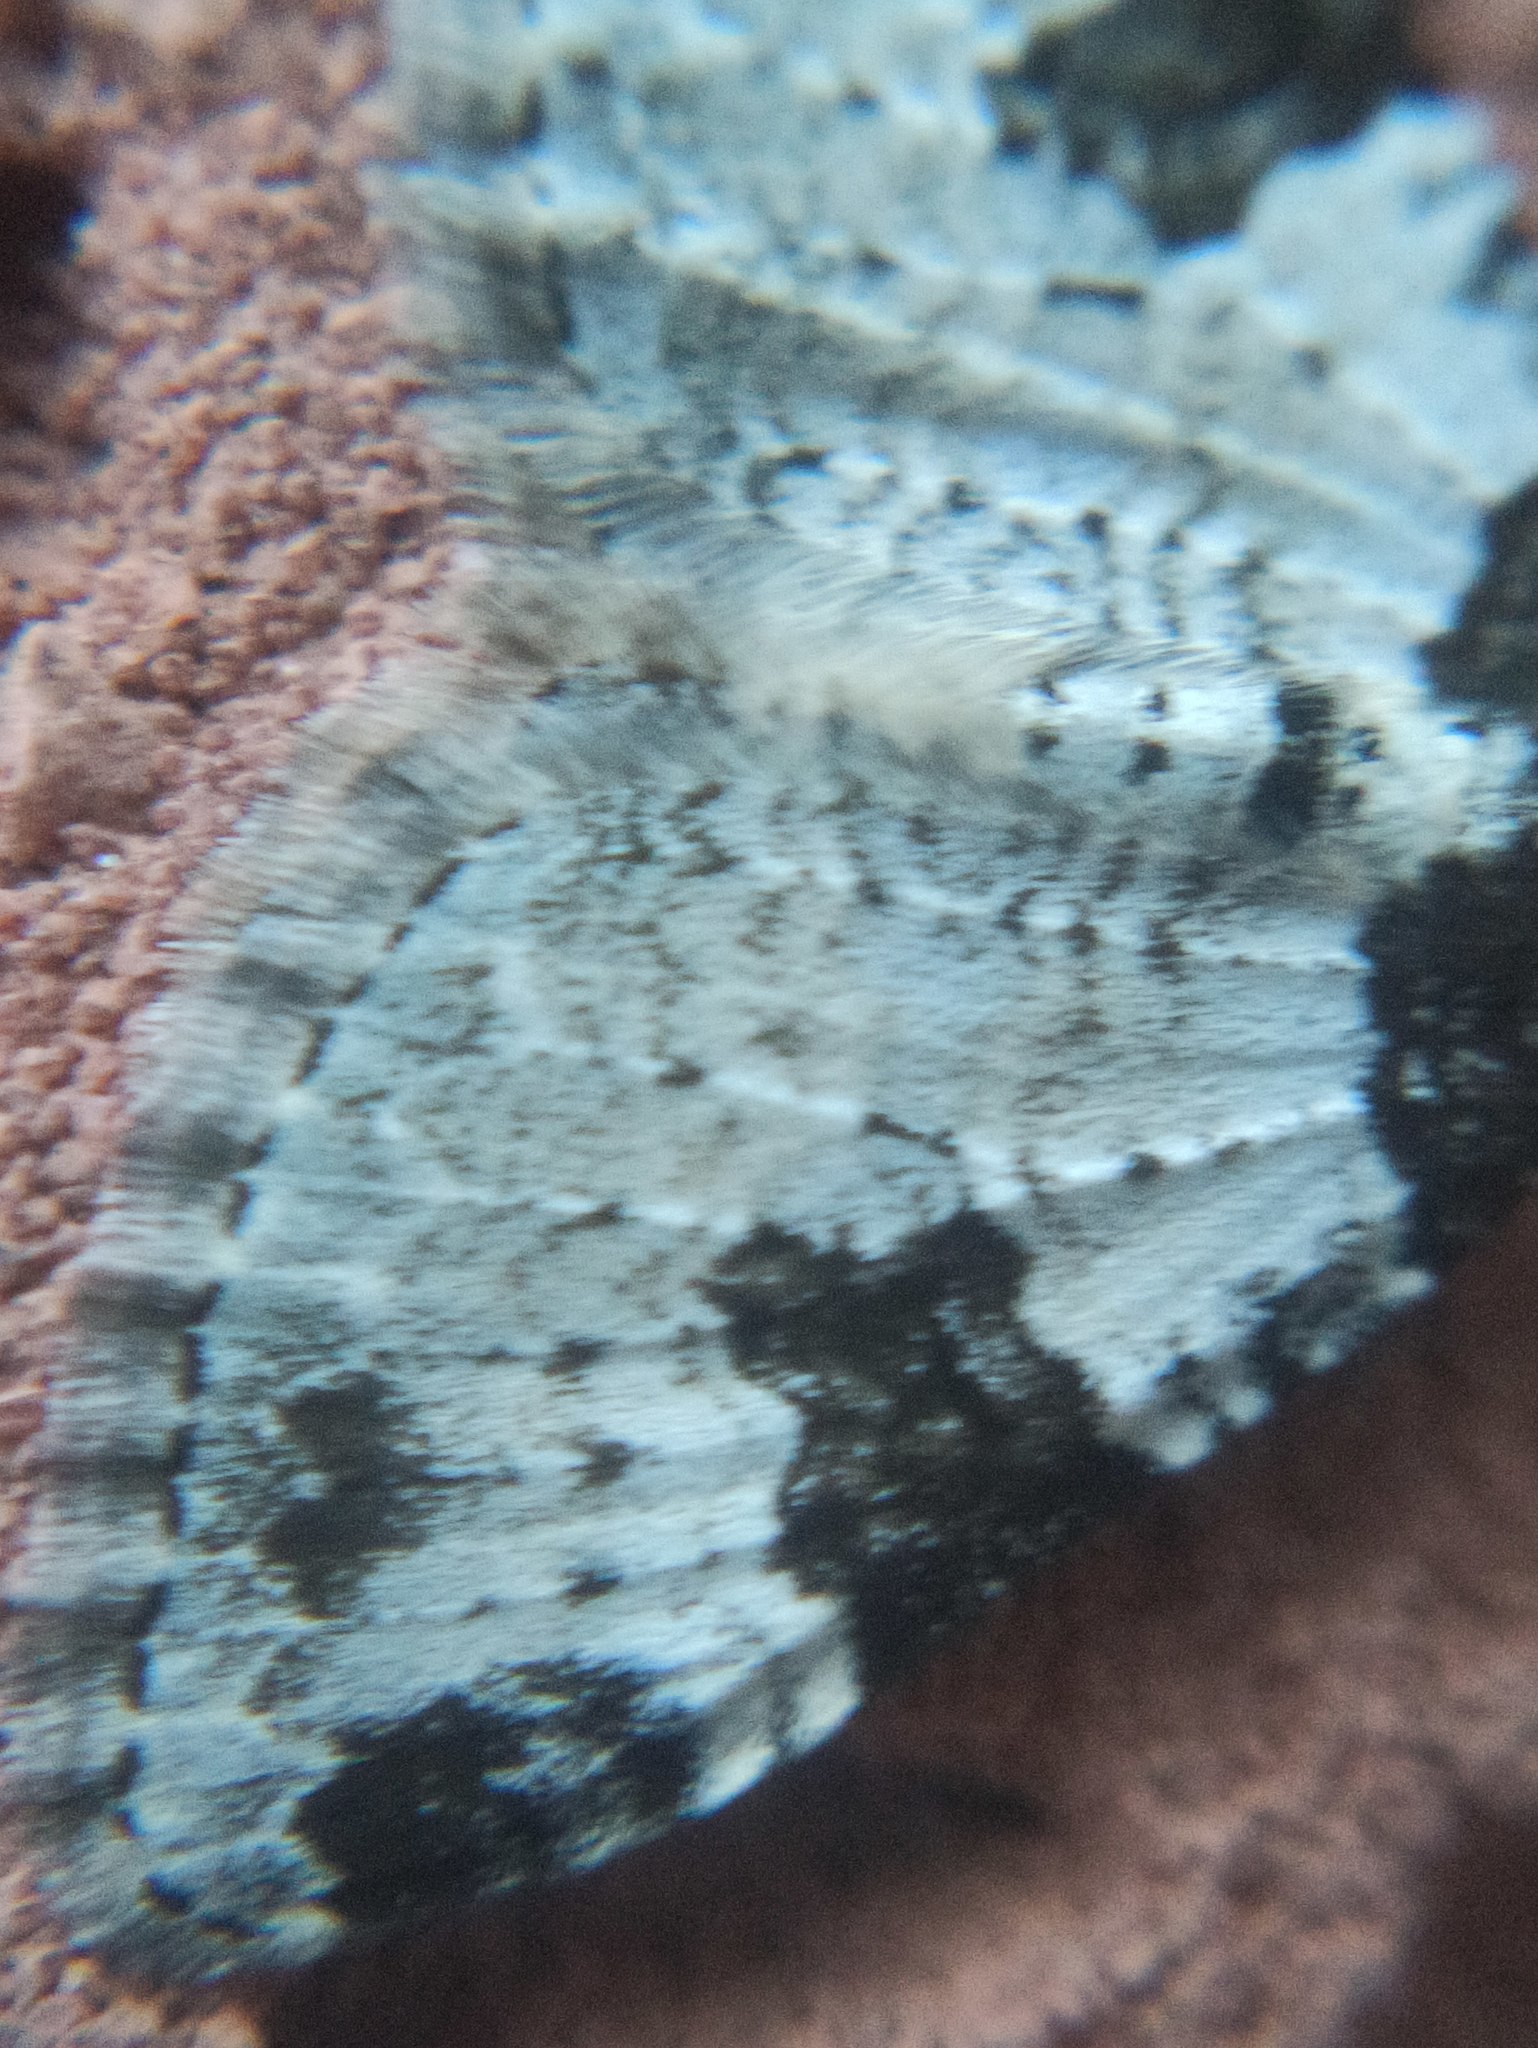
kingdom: Animalia
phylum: Arthropoda
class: Insecta
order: Lepidoptera
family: Geometridae
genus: Xanthorhoe
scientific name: Xanthorhoe fluctuata
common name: Garden carpet
